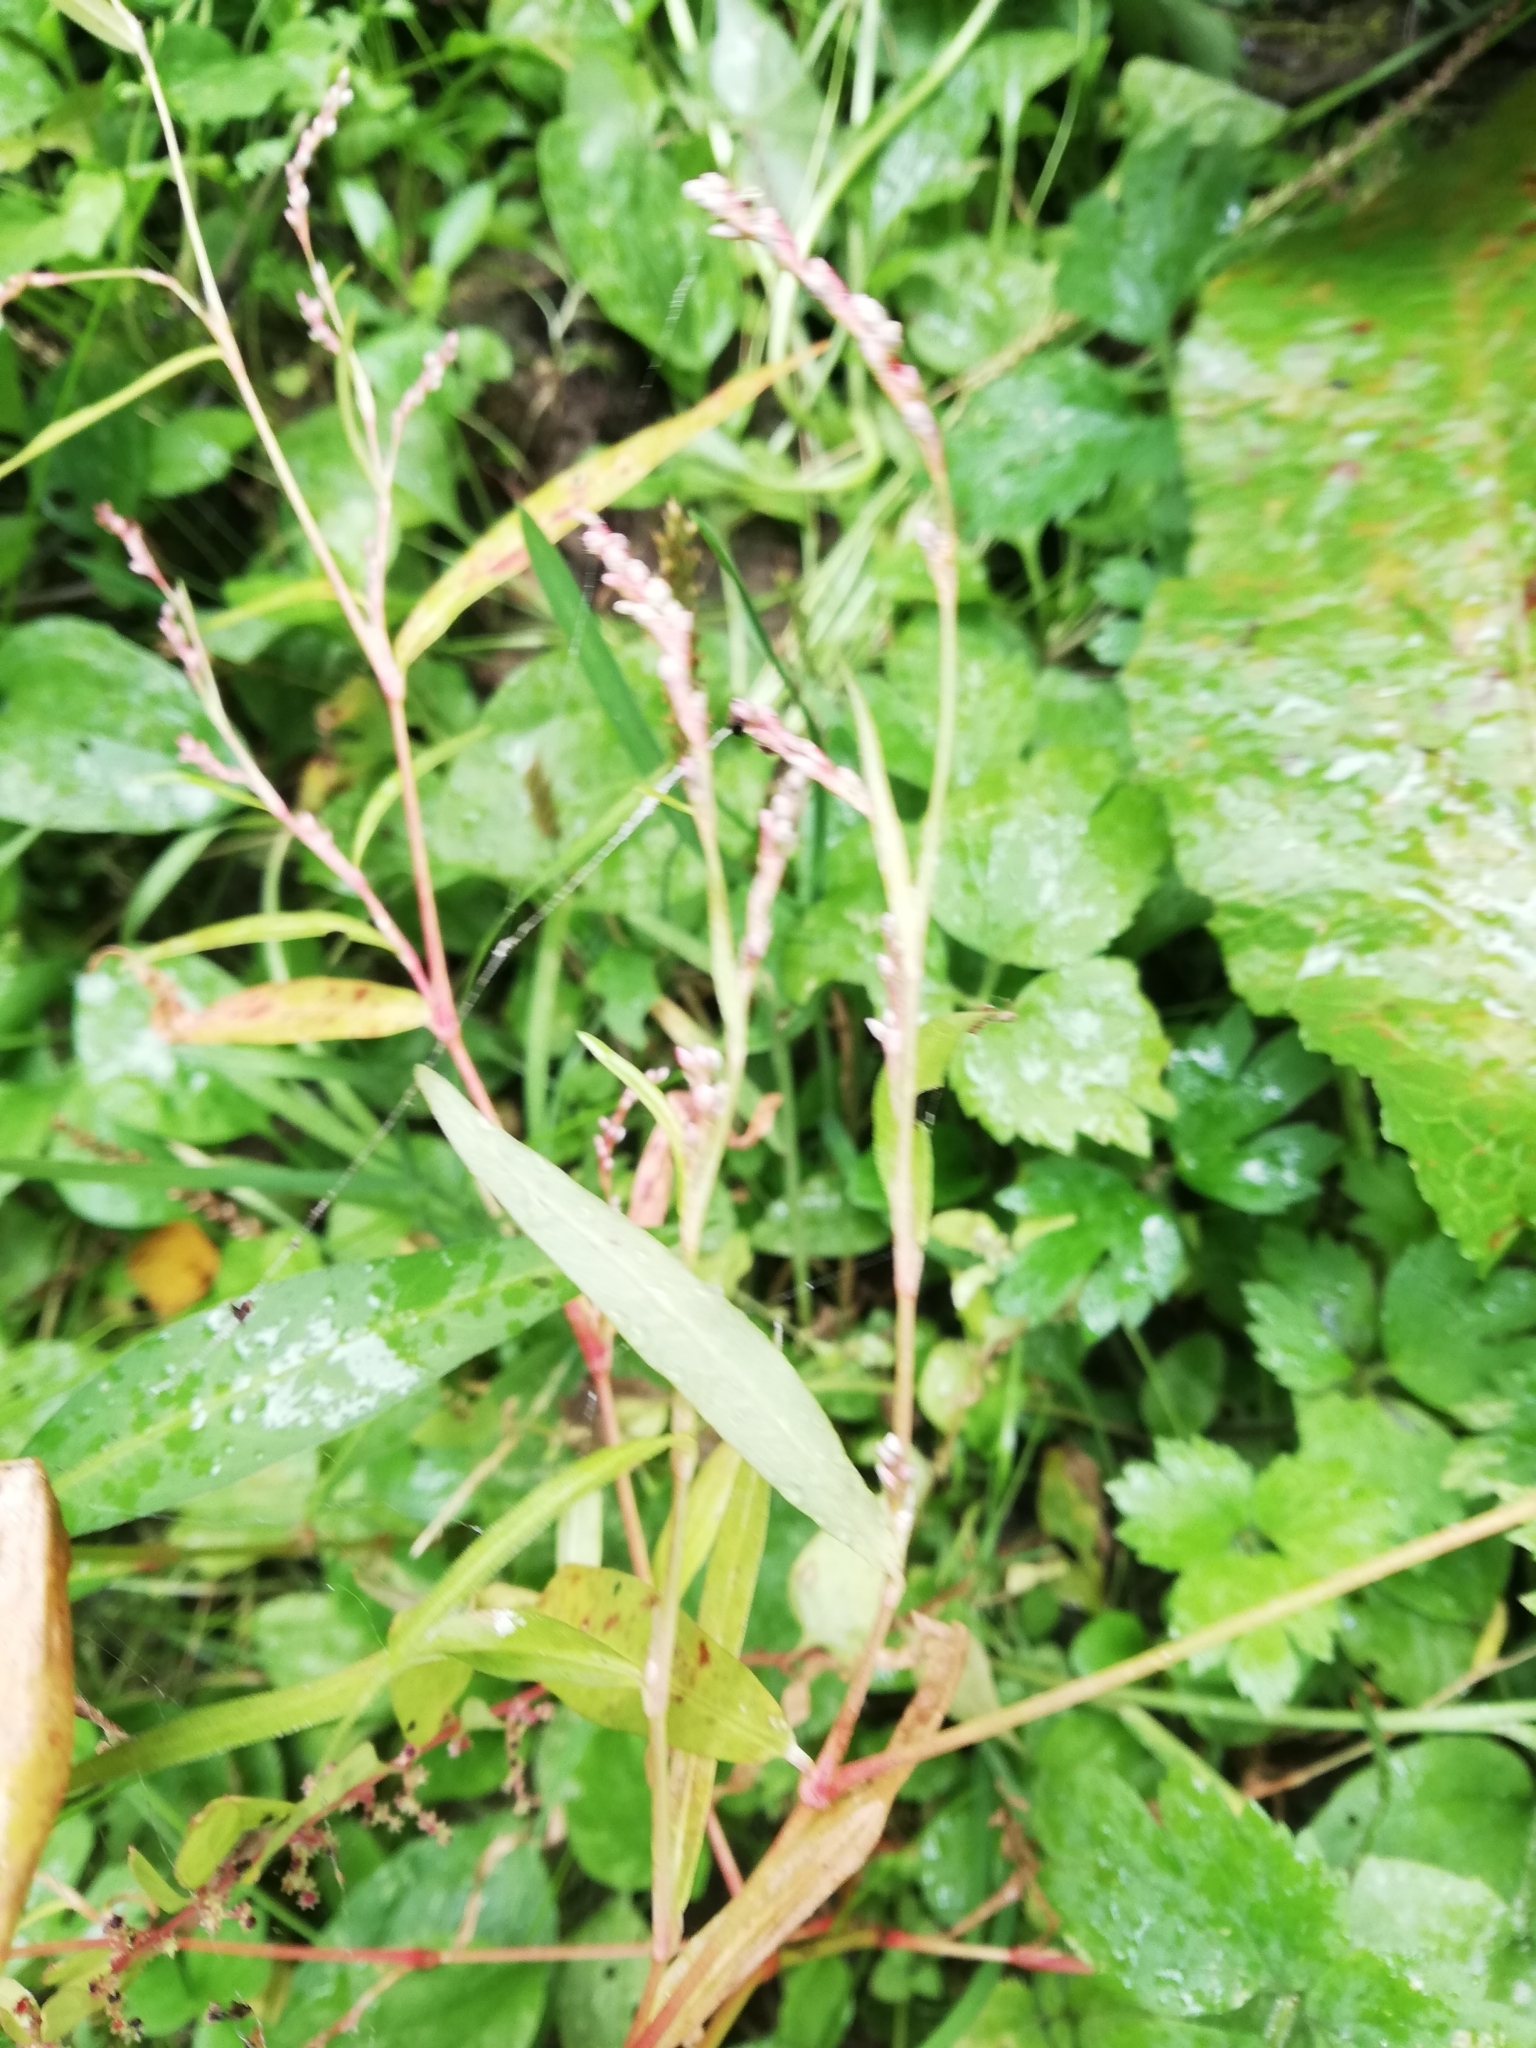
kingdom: Plantae
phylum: Tracheophyta
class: Magnoliopsida
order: Caryophyllales
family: Polygonaceae
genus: Persicaria
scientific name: Persicaria minor
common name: Small water-pepper
